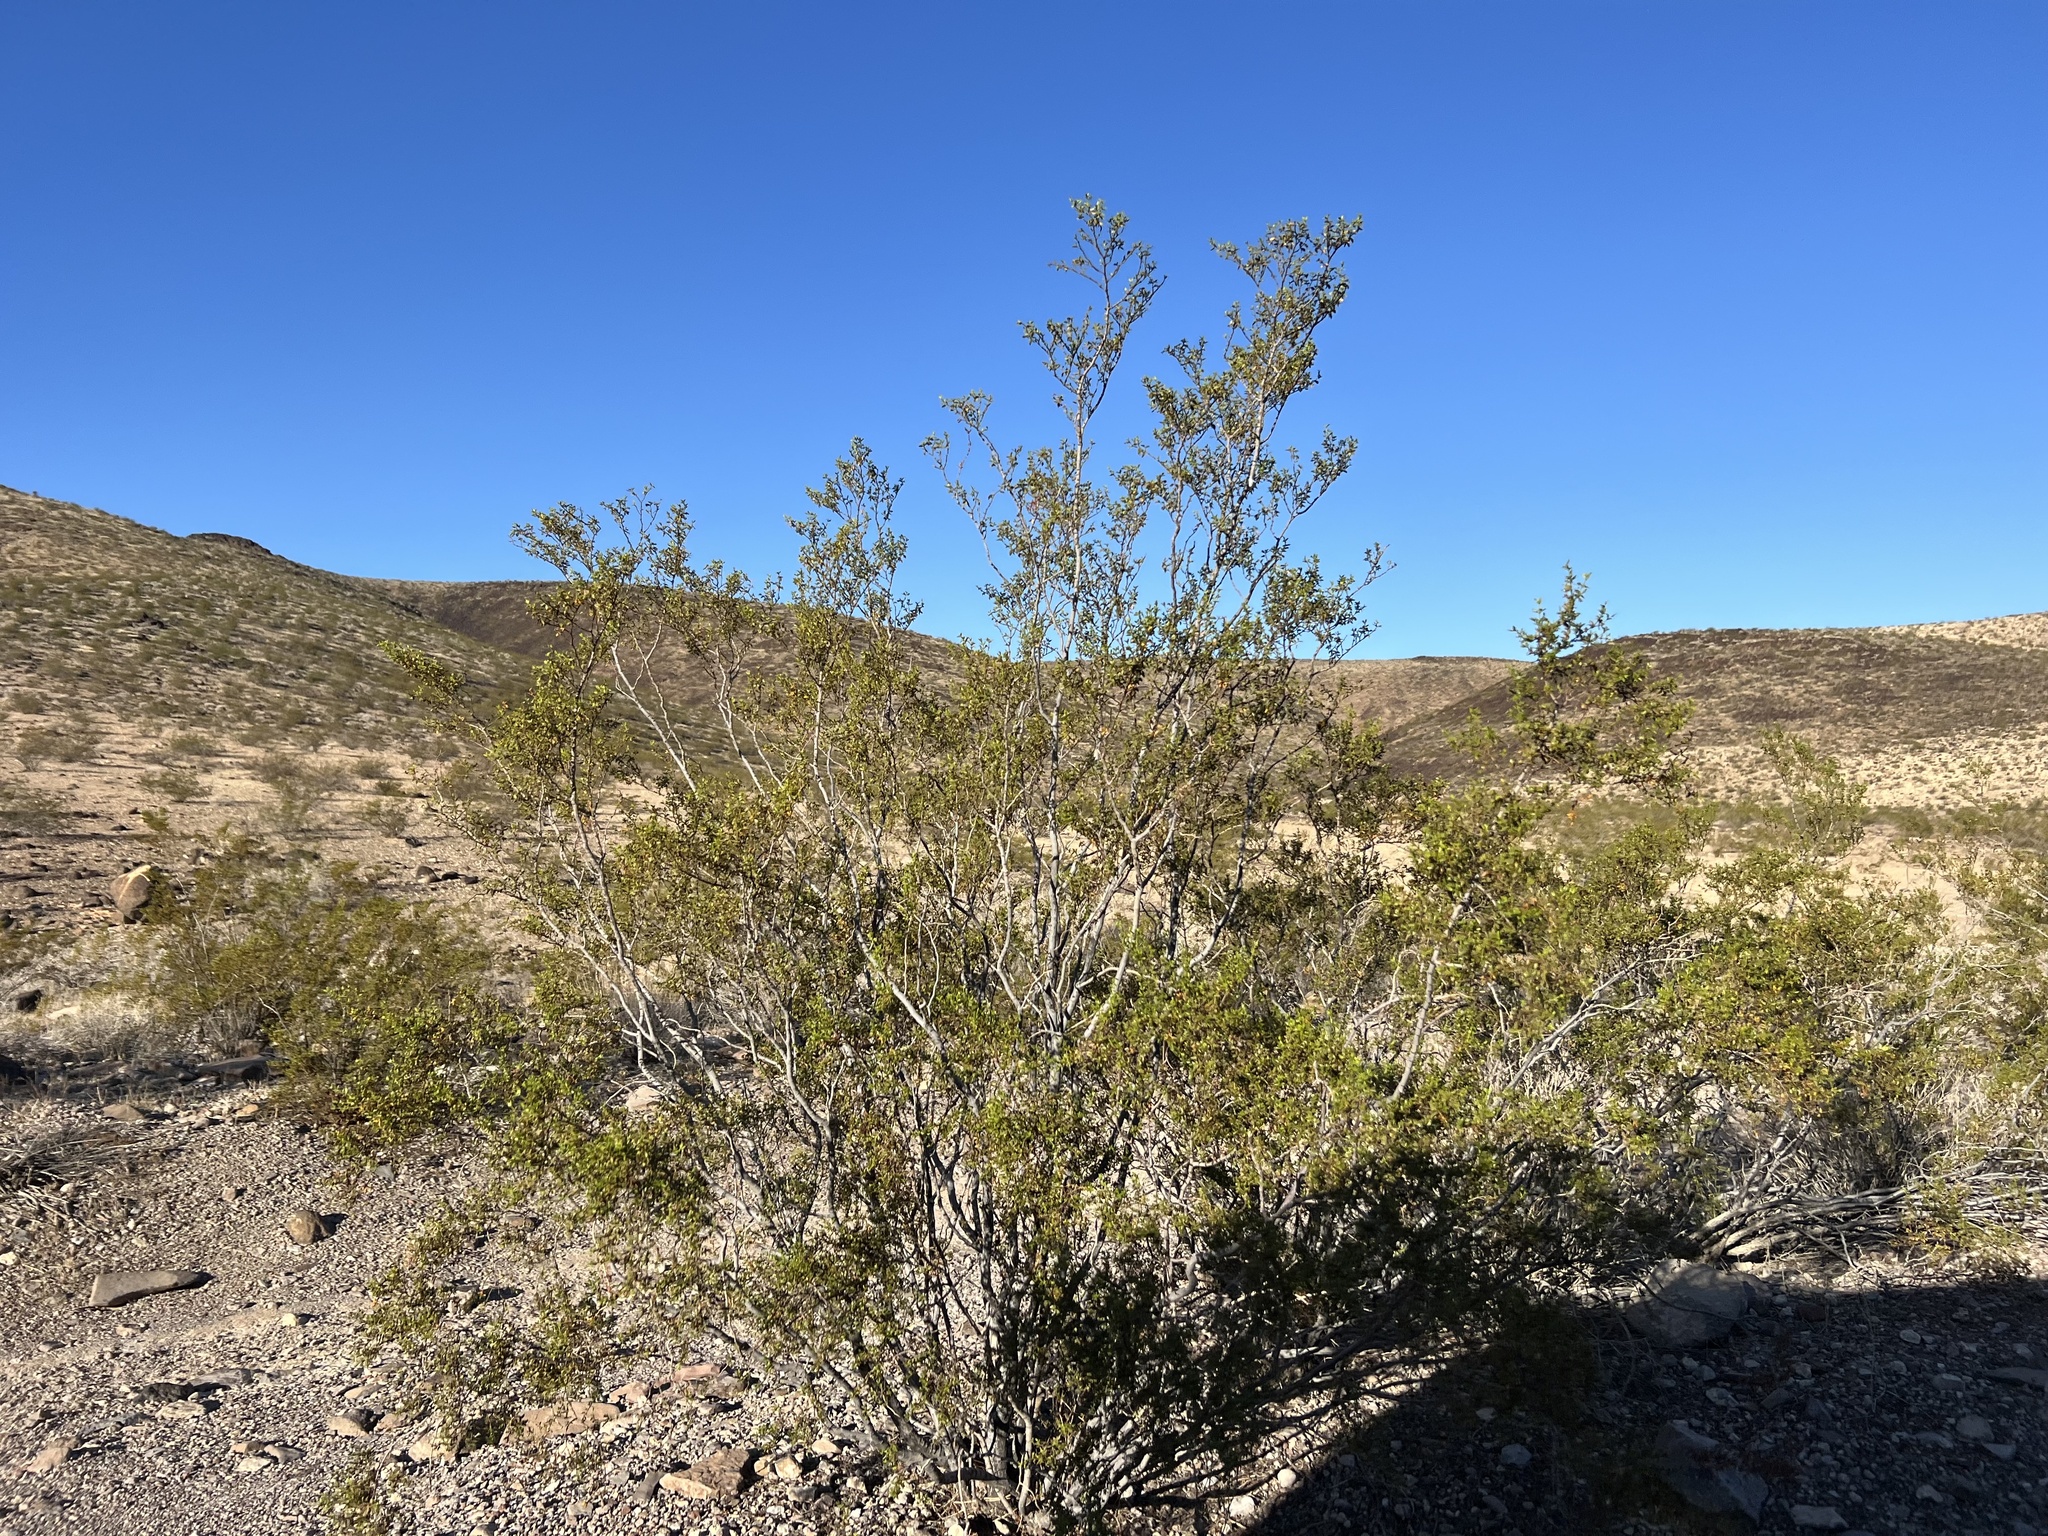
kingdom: Plantae
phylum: Tracheophyta
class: Magnoliopsida
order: Zygophyllales
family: Zygophyllaceae
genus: Larrea
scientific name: Larrea tridentata
